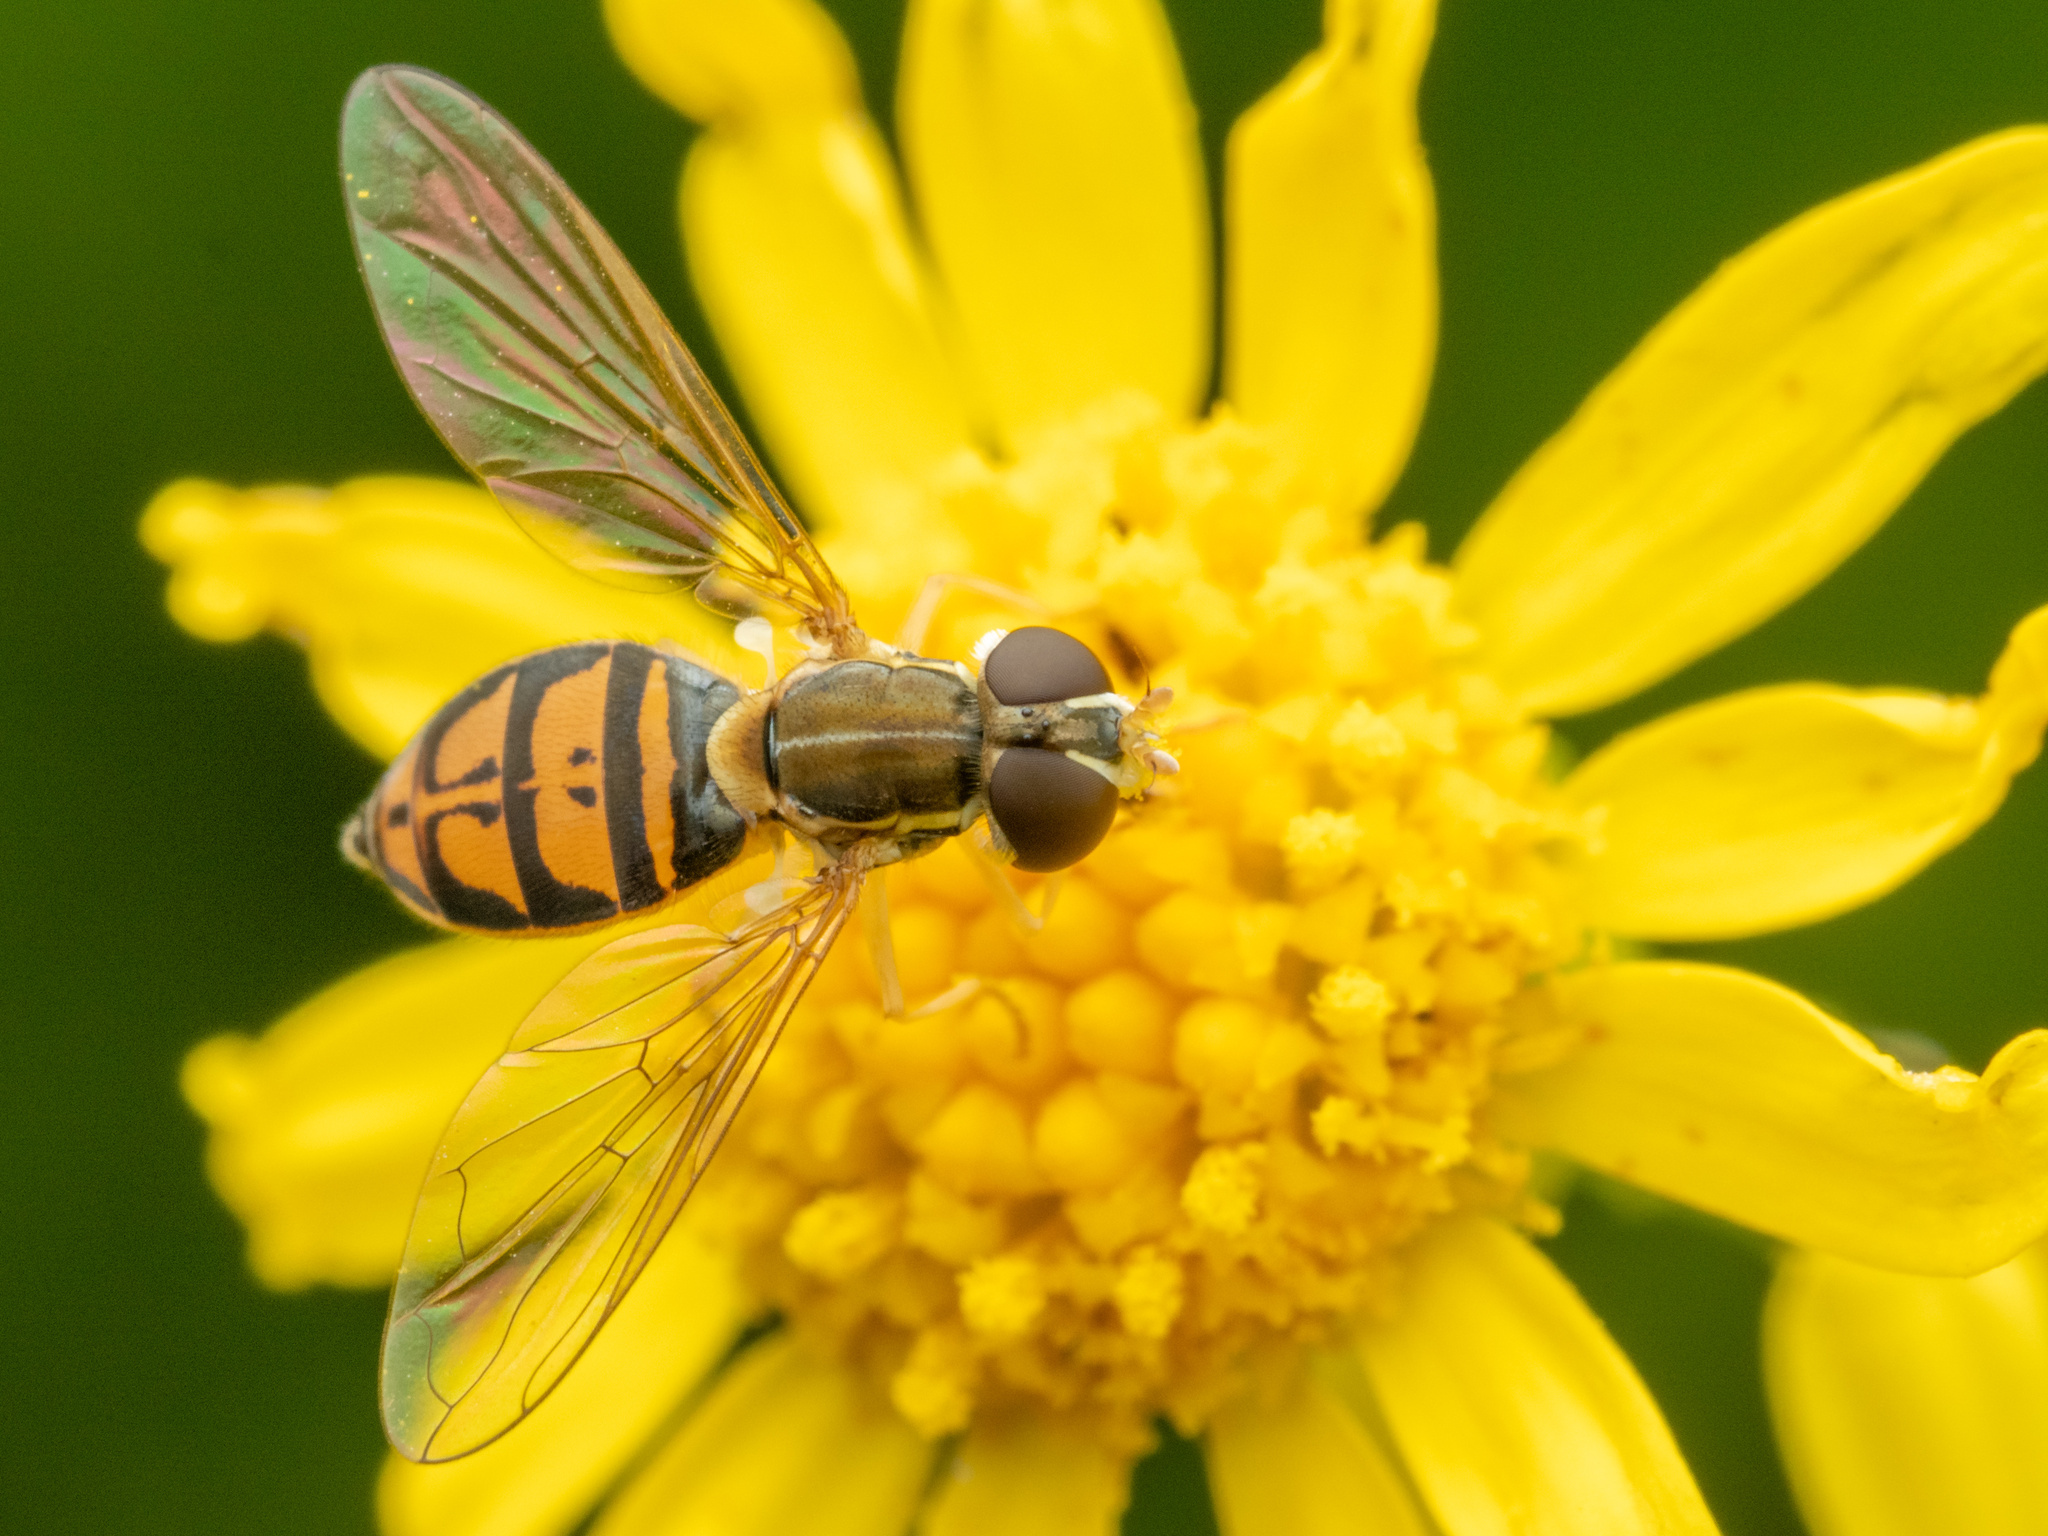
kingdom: Animalia
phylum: Arthropoda
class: Insecta
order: Diptera
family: Syrphidae
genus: Toxomerus
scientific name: Toxomerus marginatus
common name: Syrphid fly
